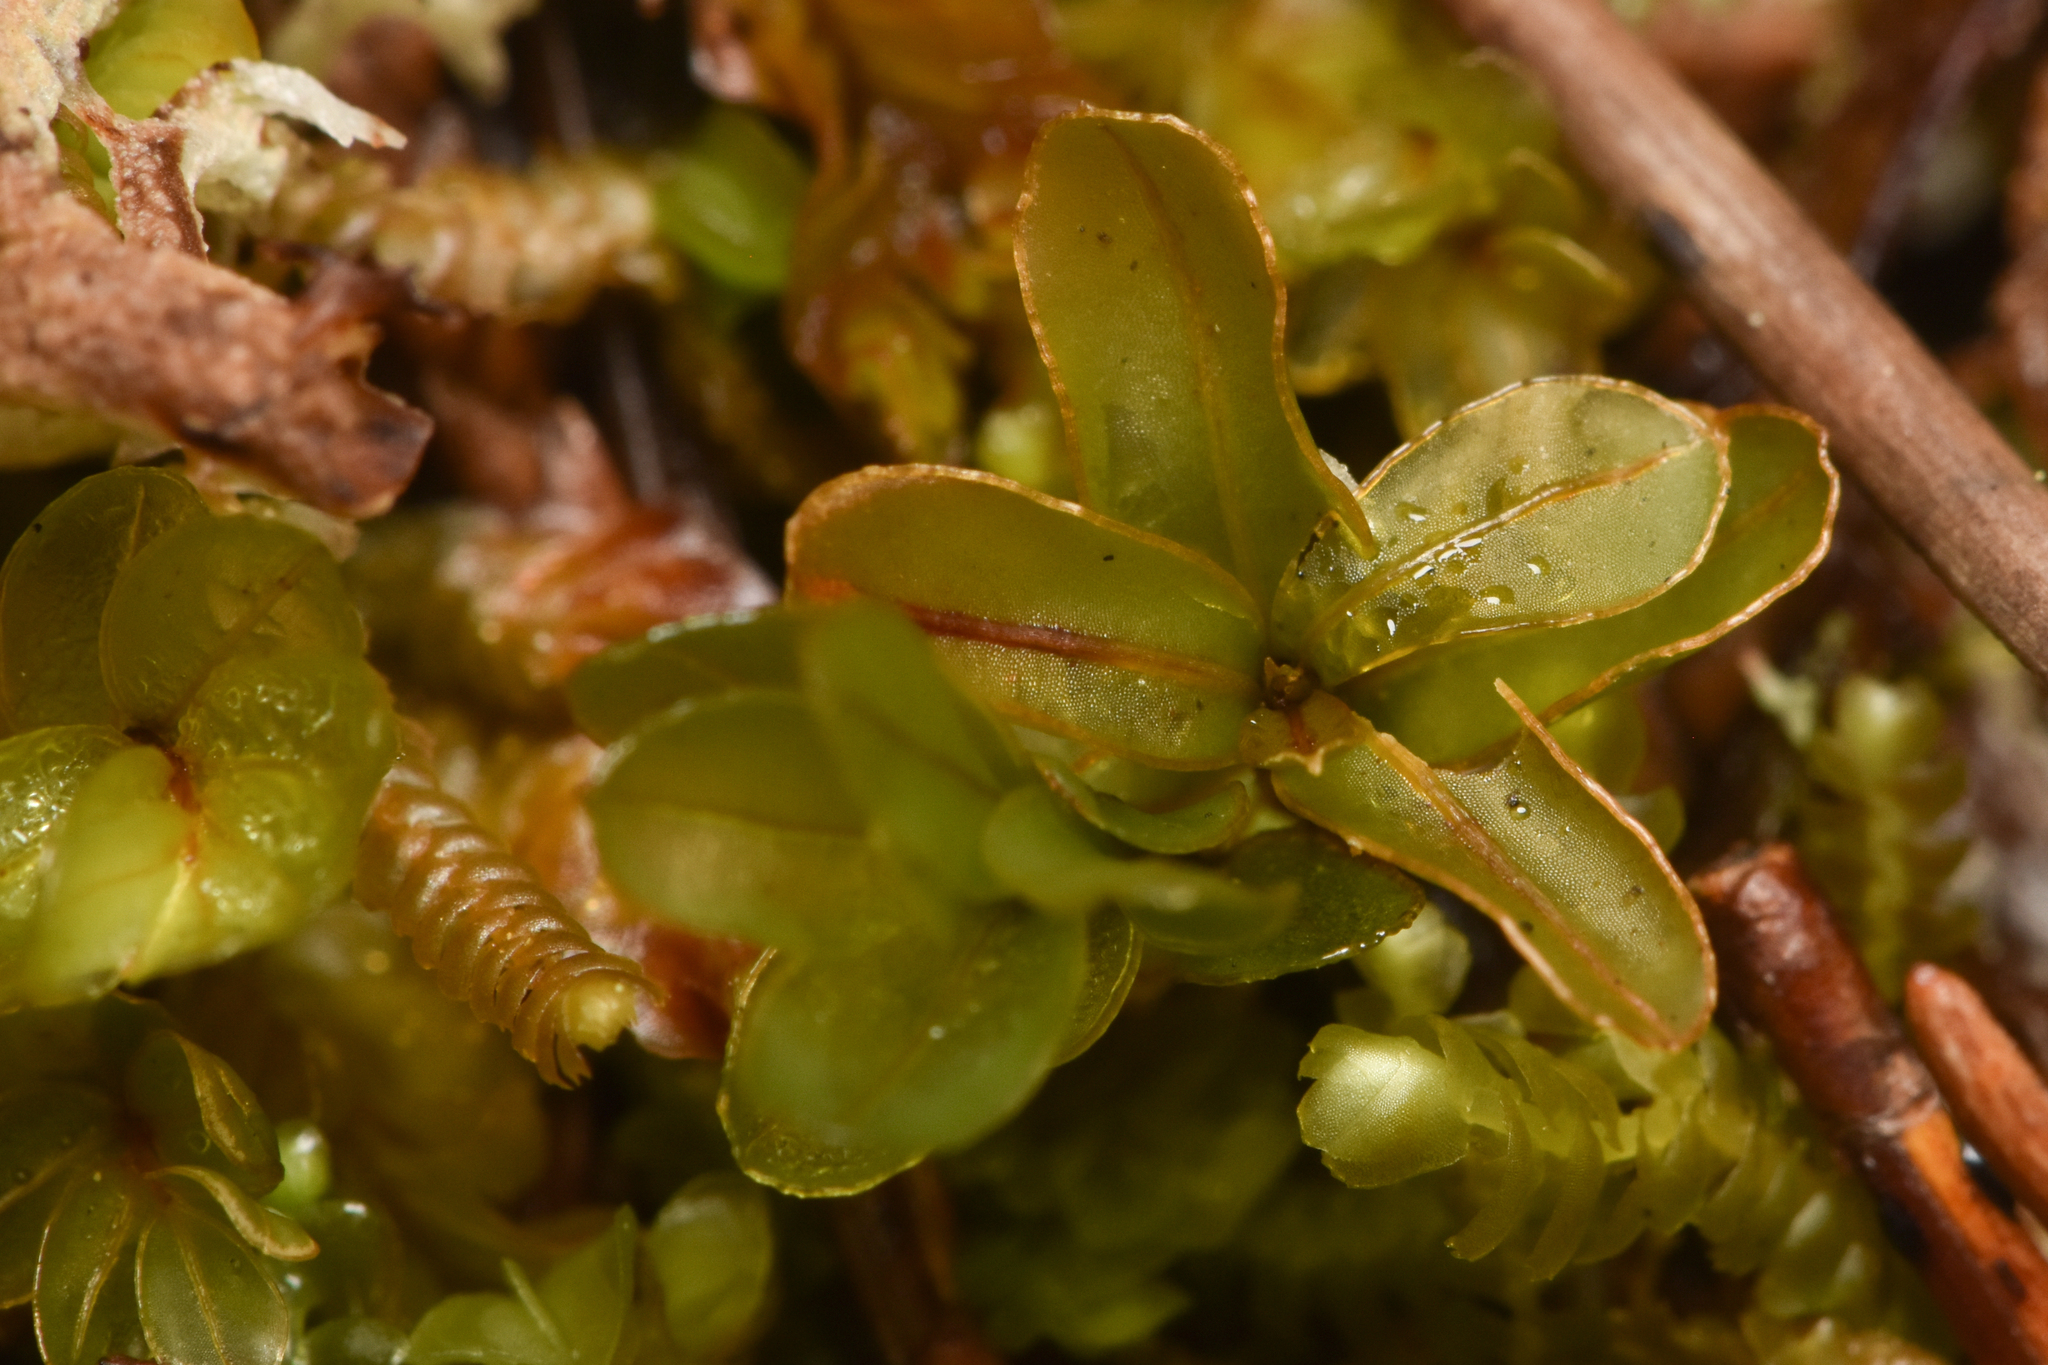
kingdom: Plantae
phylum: Bryophyta
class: Bryopsida
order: Bryales
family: Mniaceae
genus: Rhizomnium
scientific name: Rhizomnium glabrescens
